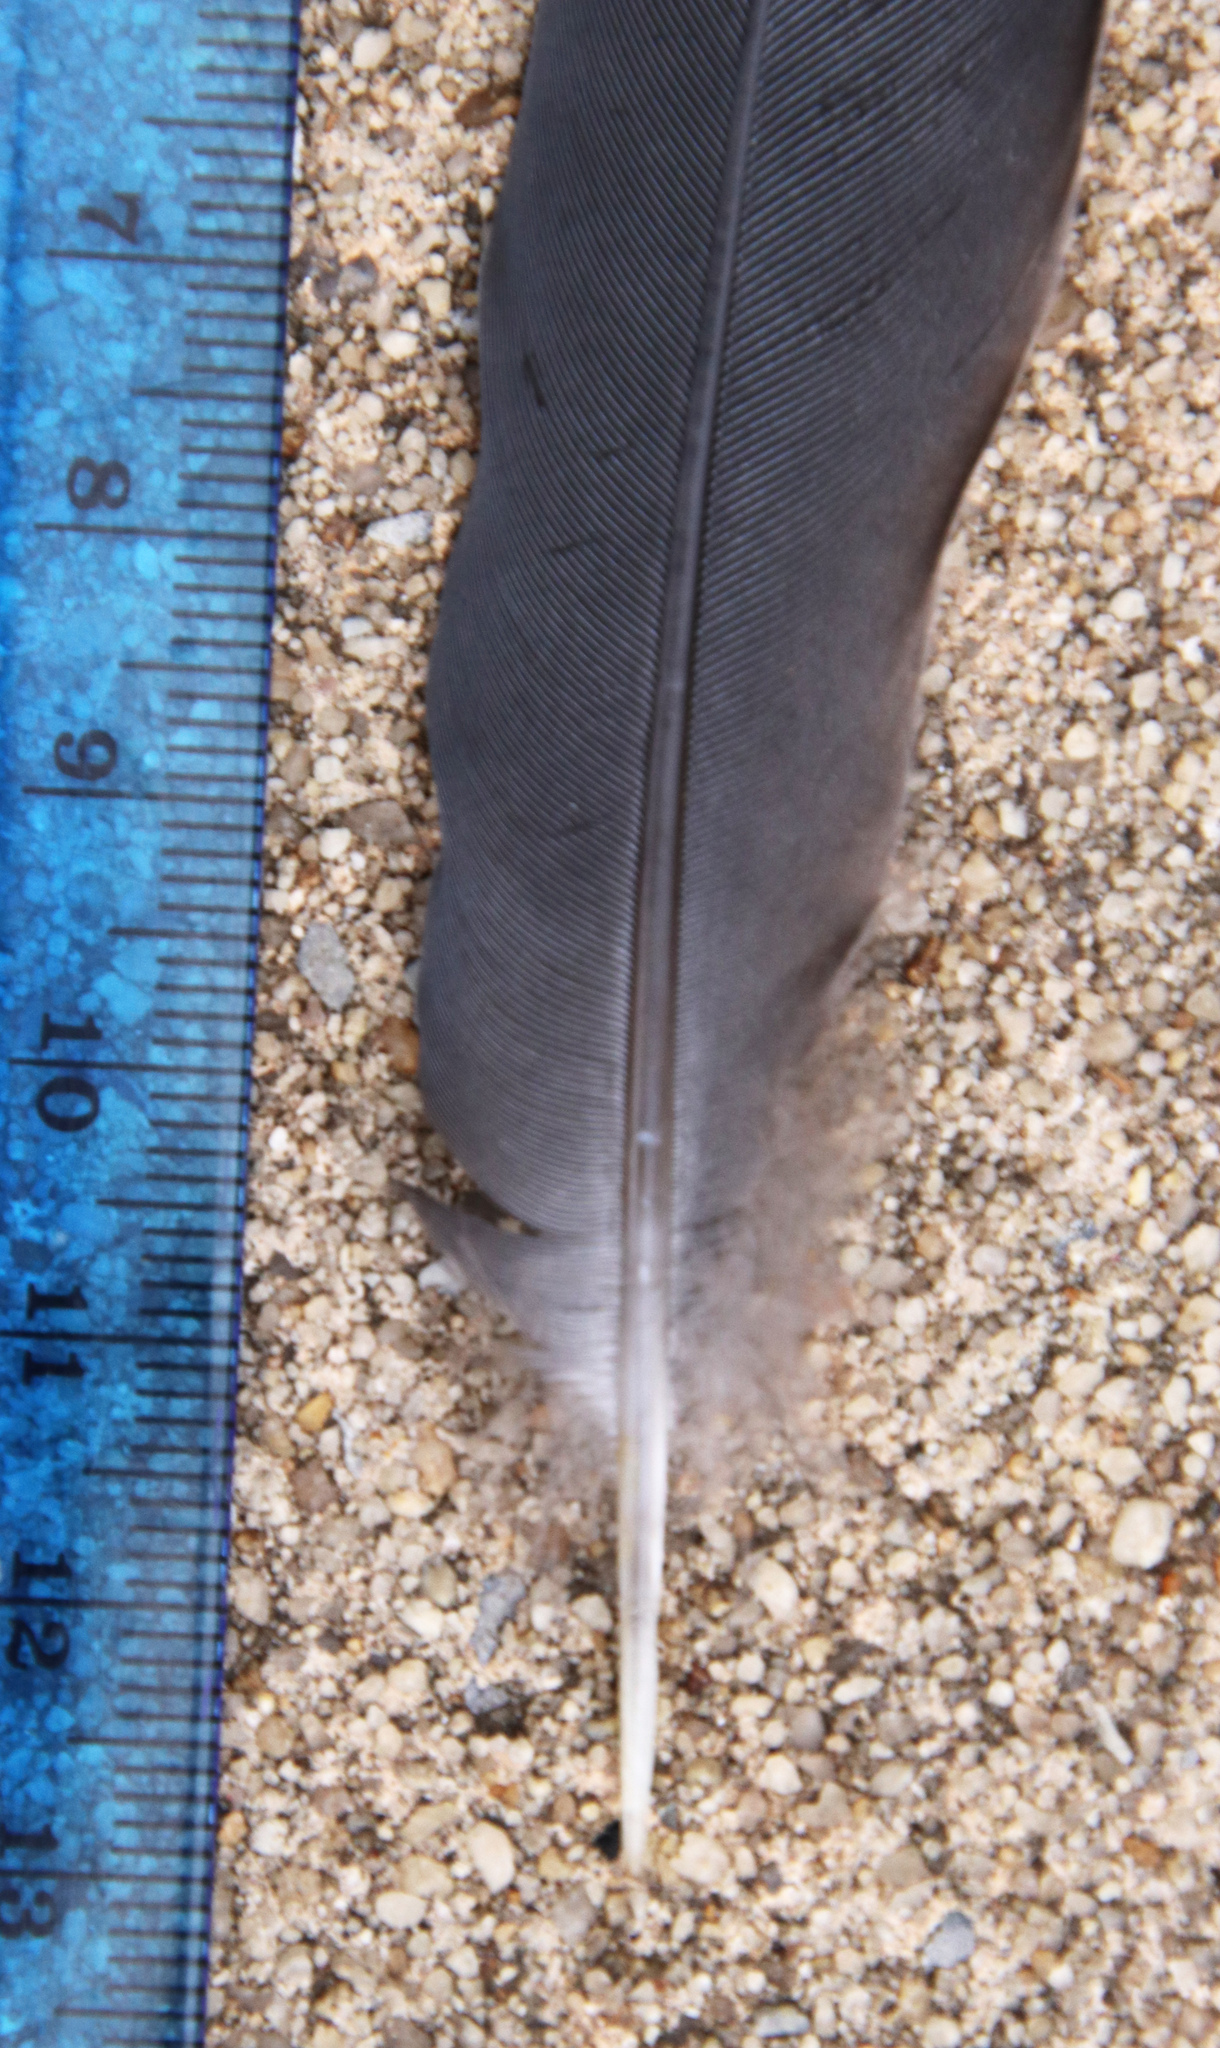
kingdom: Animalia
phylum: Chordata
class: Aves
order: Columbiformes
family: Columbidae
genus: Zenaida
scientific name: Zenaida macroura
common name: Mourning dove
